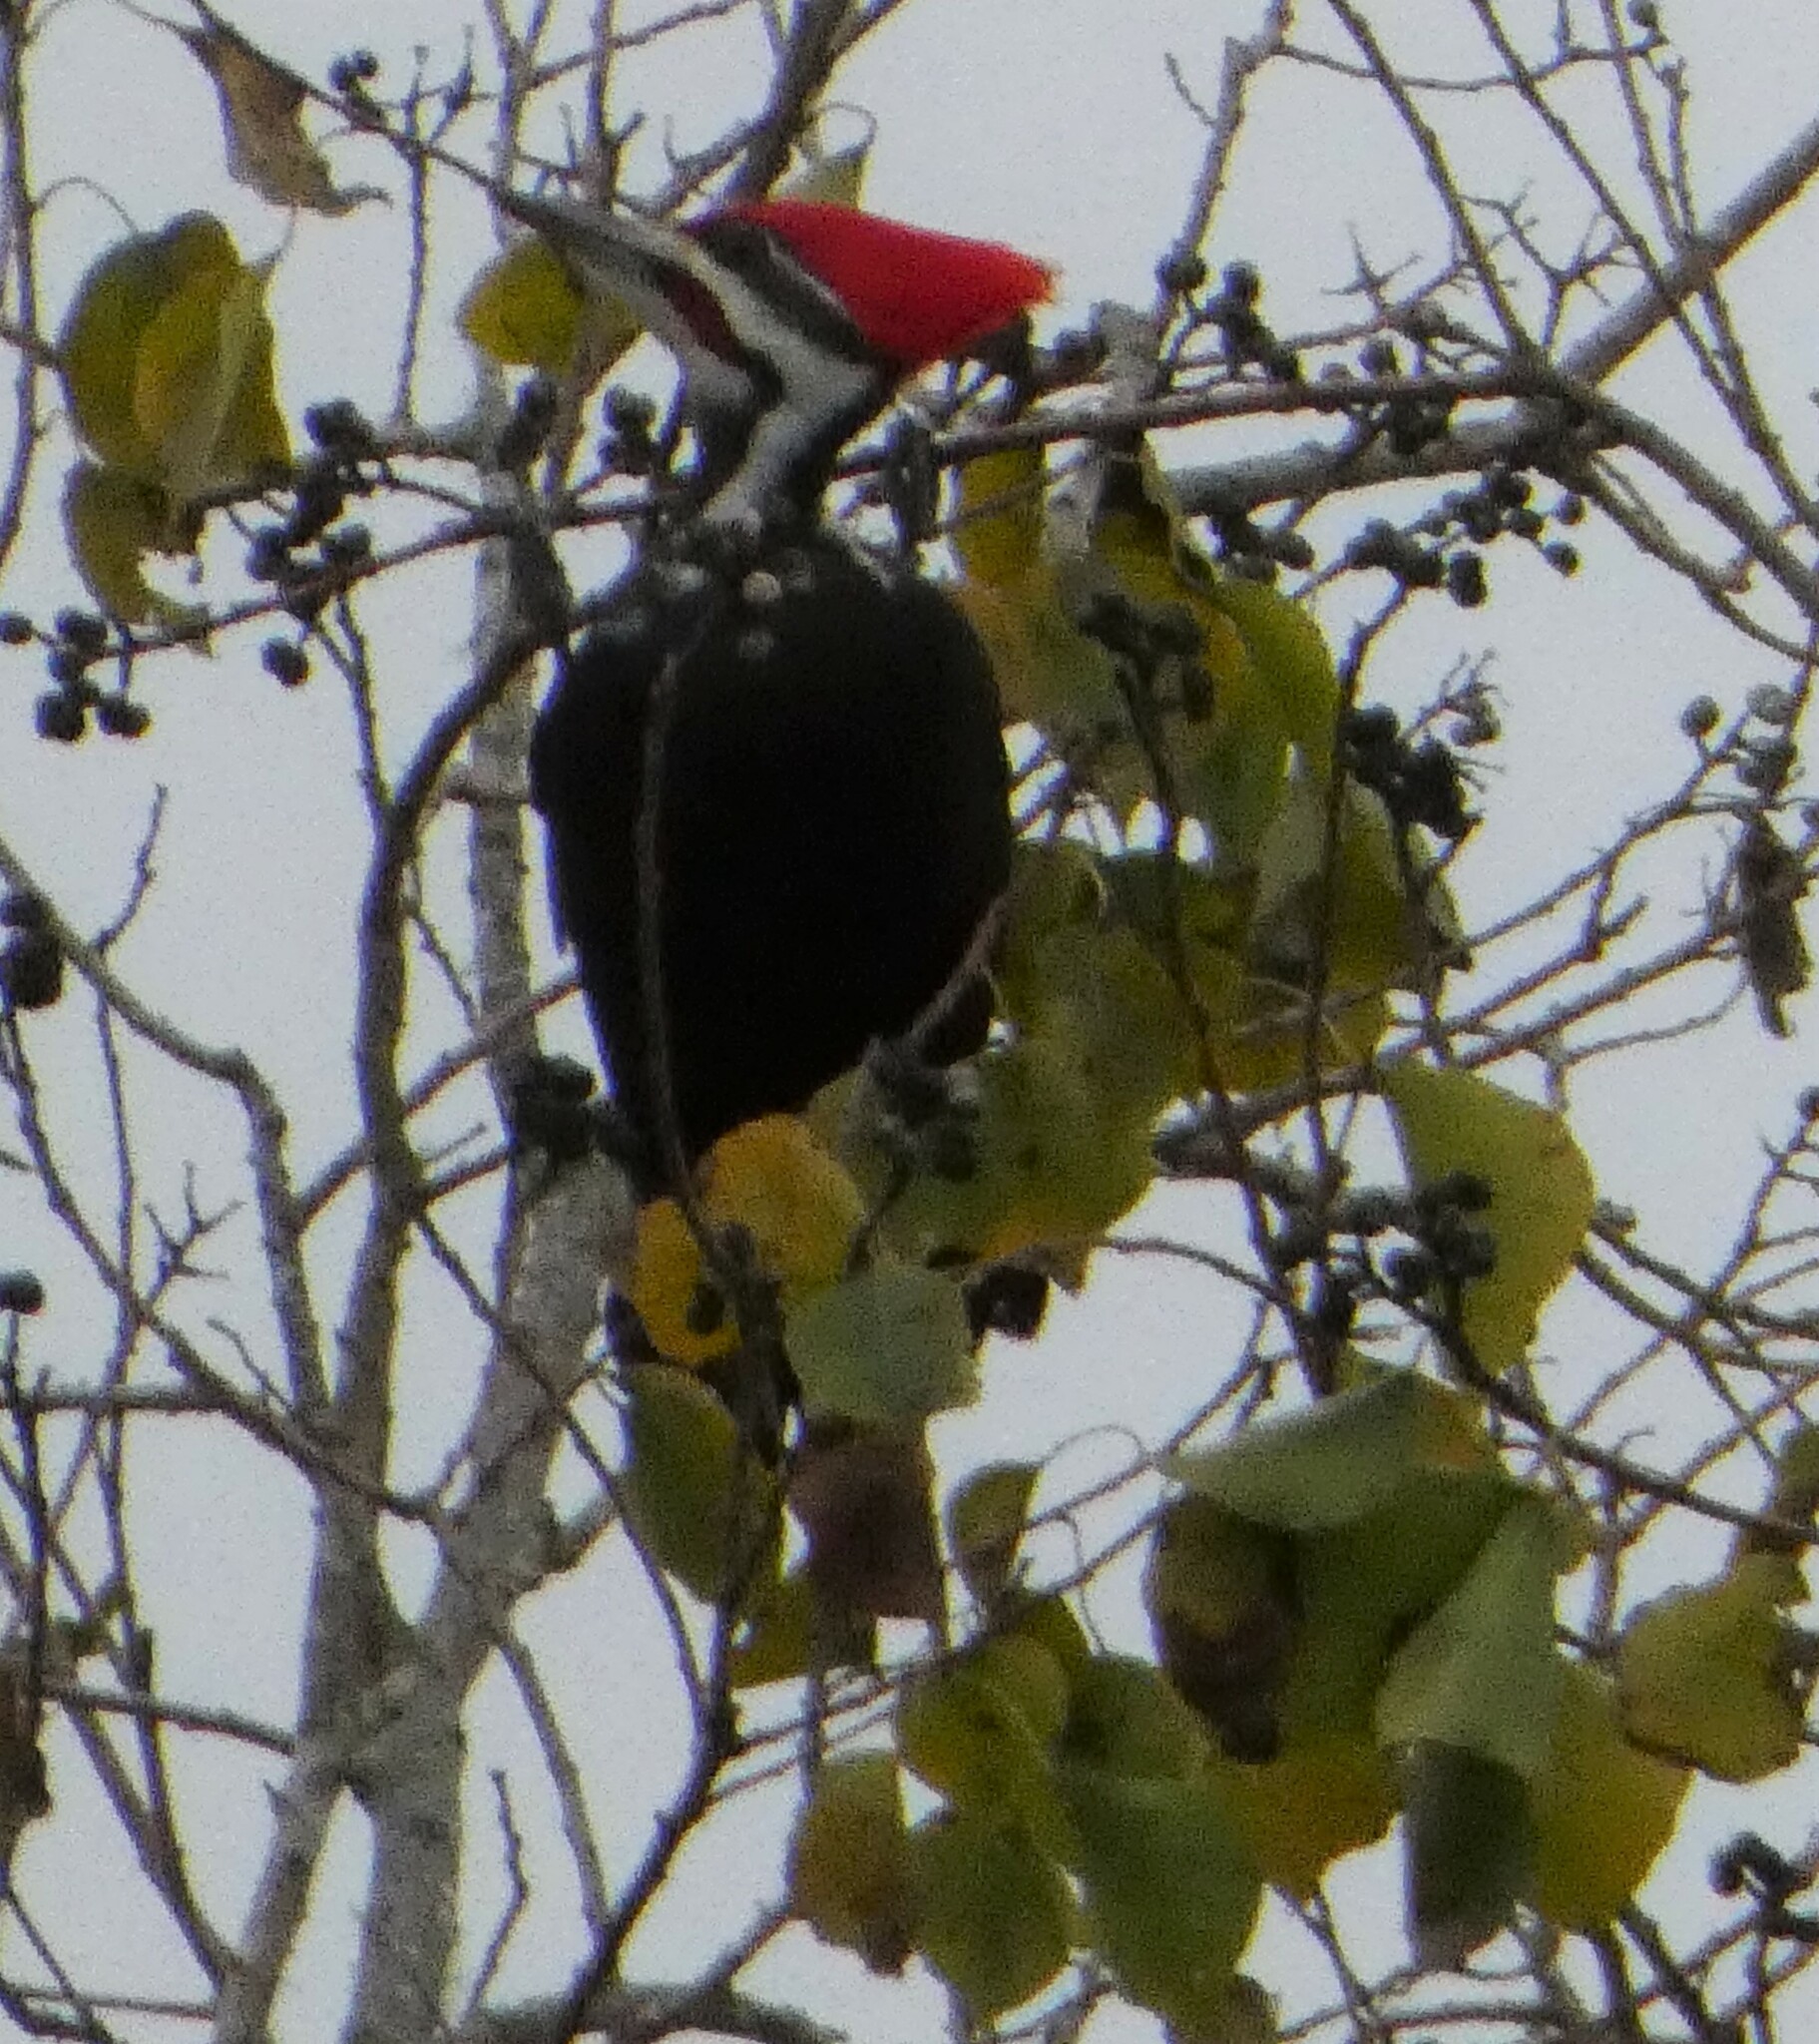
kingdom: Animalia
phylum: Chordata
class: Aves
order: Piciformes
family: Picidae
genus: Dryocopus
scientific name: Dryocopus pileatus
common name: Pileated woodpecker
